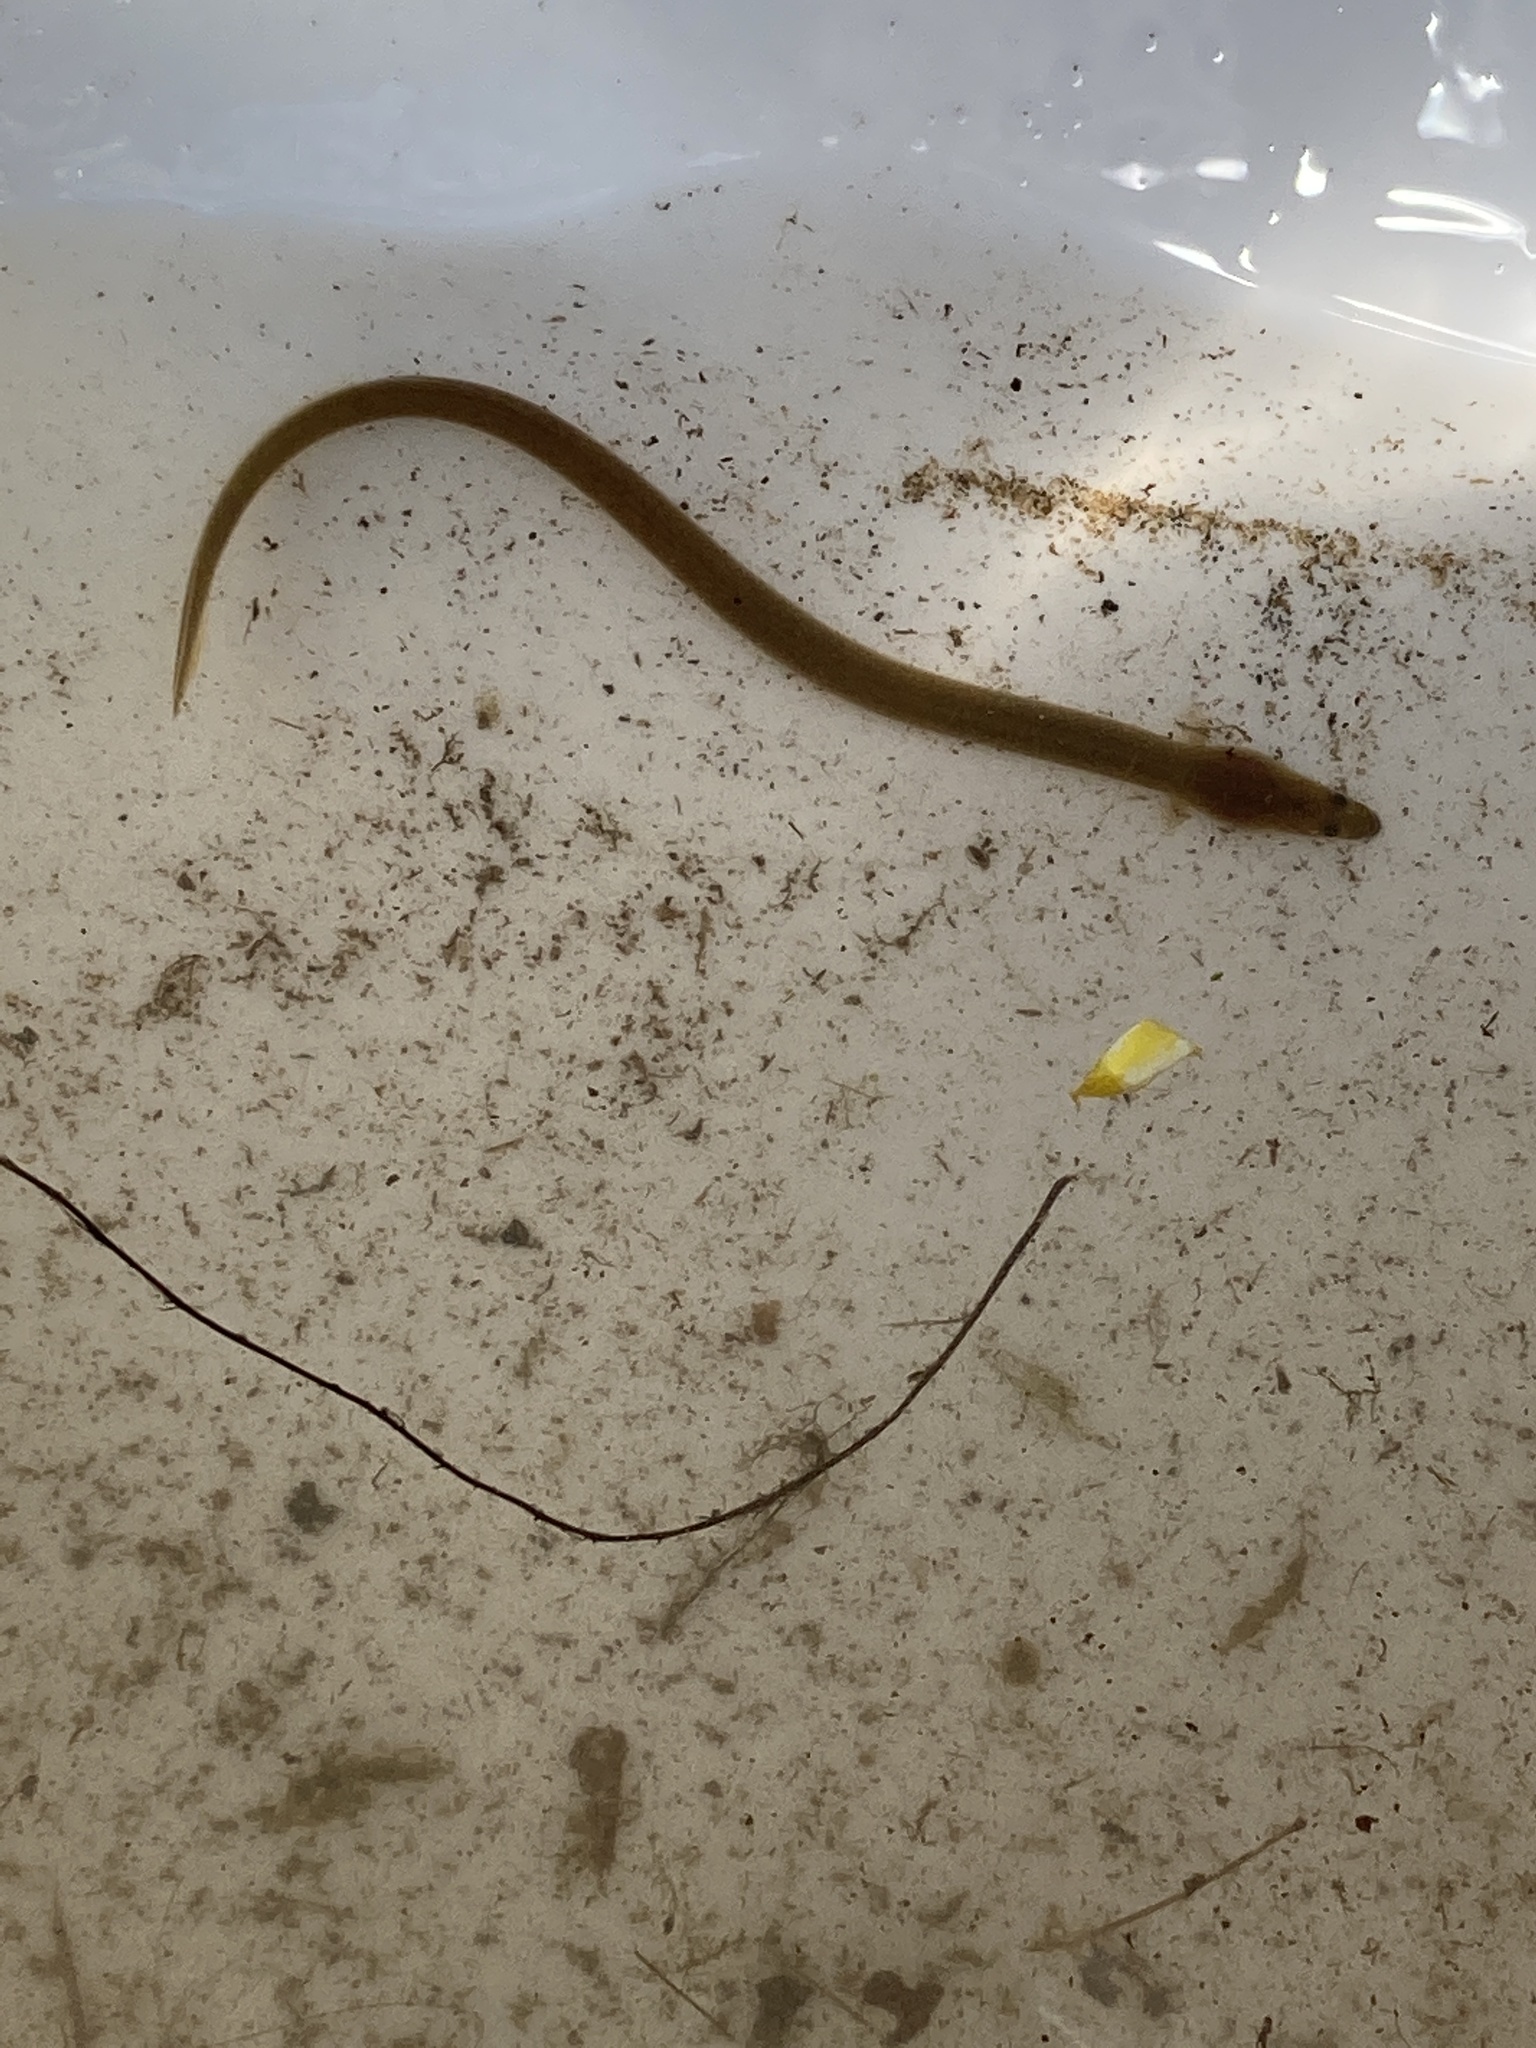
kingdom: Animalia
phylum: Chordata
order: Anguilliformes
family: Anguillidae
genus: Anguilla
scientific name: Anguilla rostrata
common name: American eel
